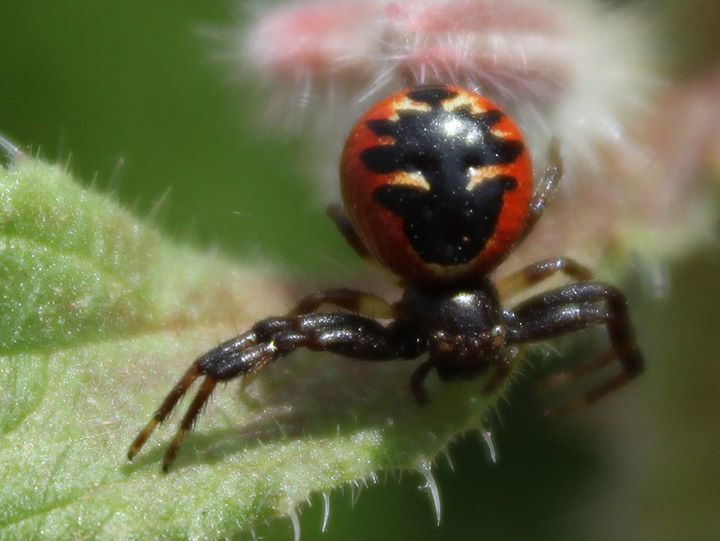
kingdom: Animalia
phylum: Arthropoda
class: Arachnida
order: Araneae
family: Thomisidae
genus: Synema
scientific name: Synema globosum
